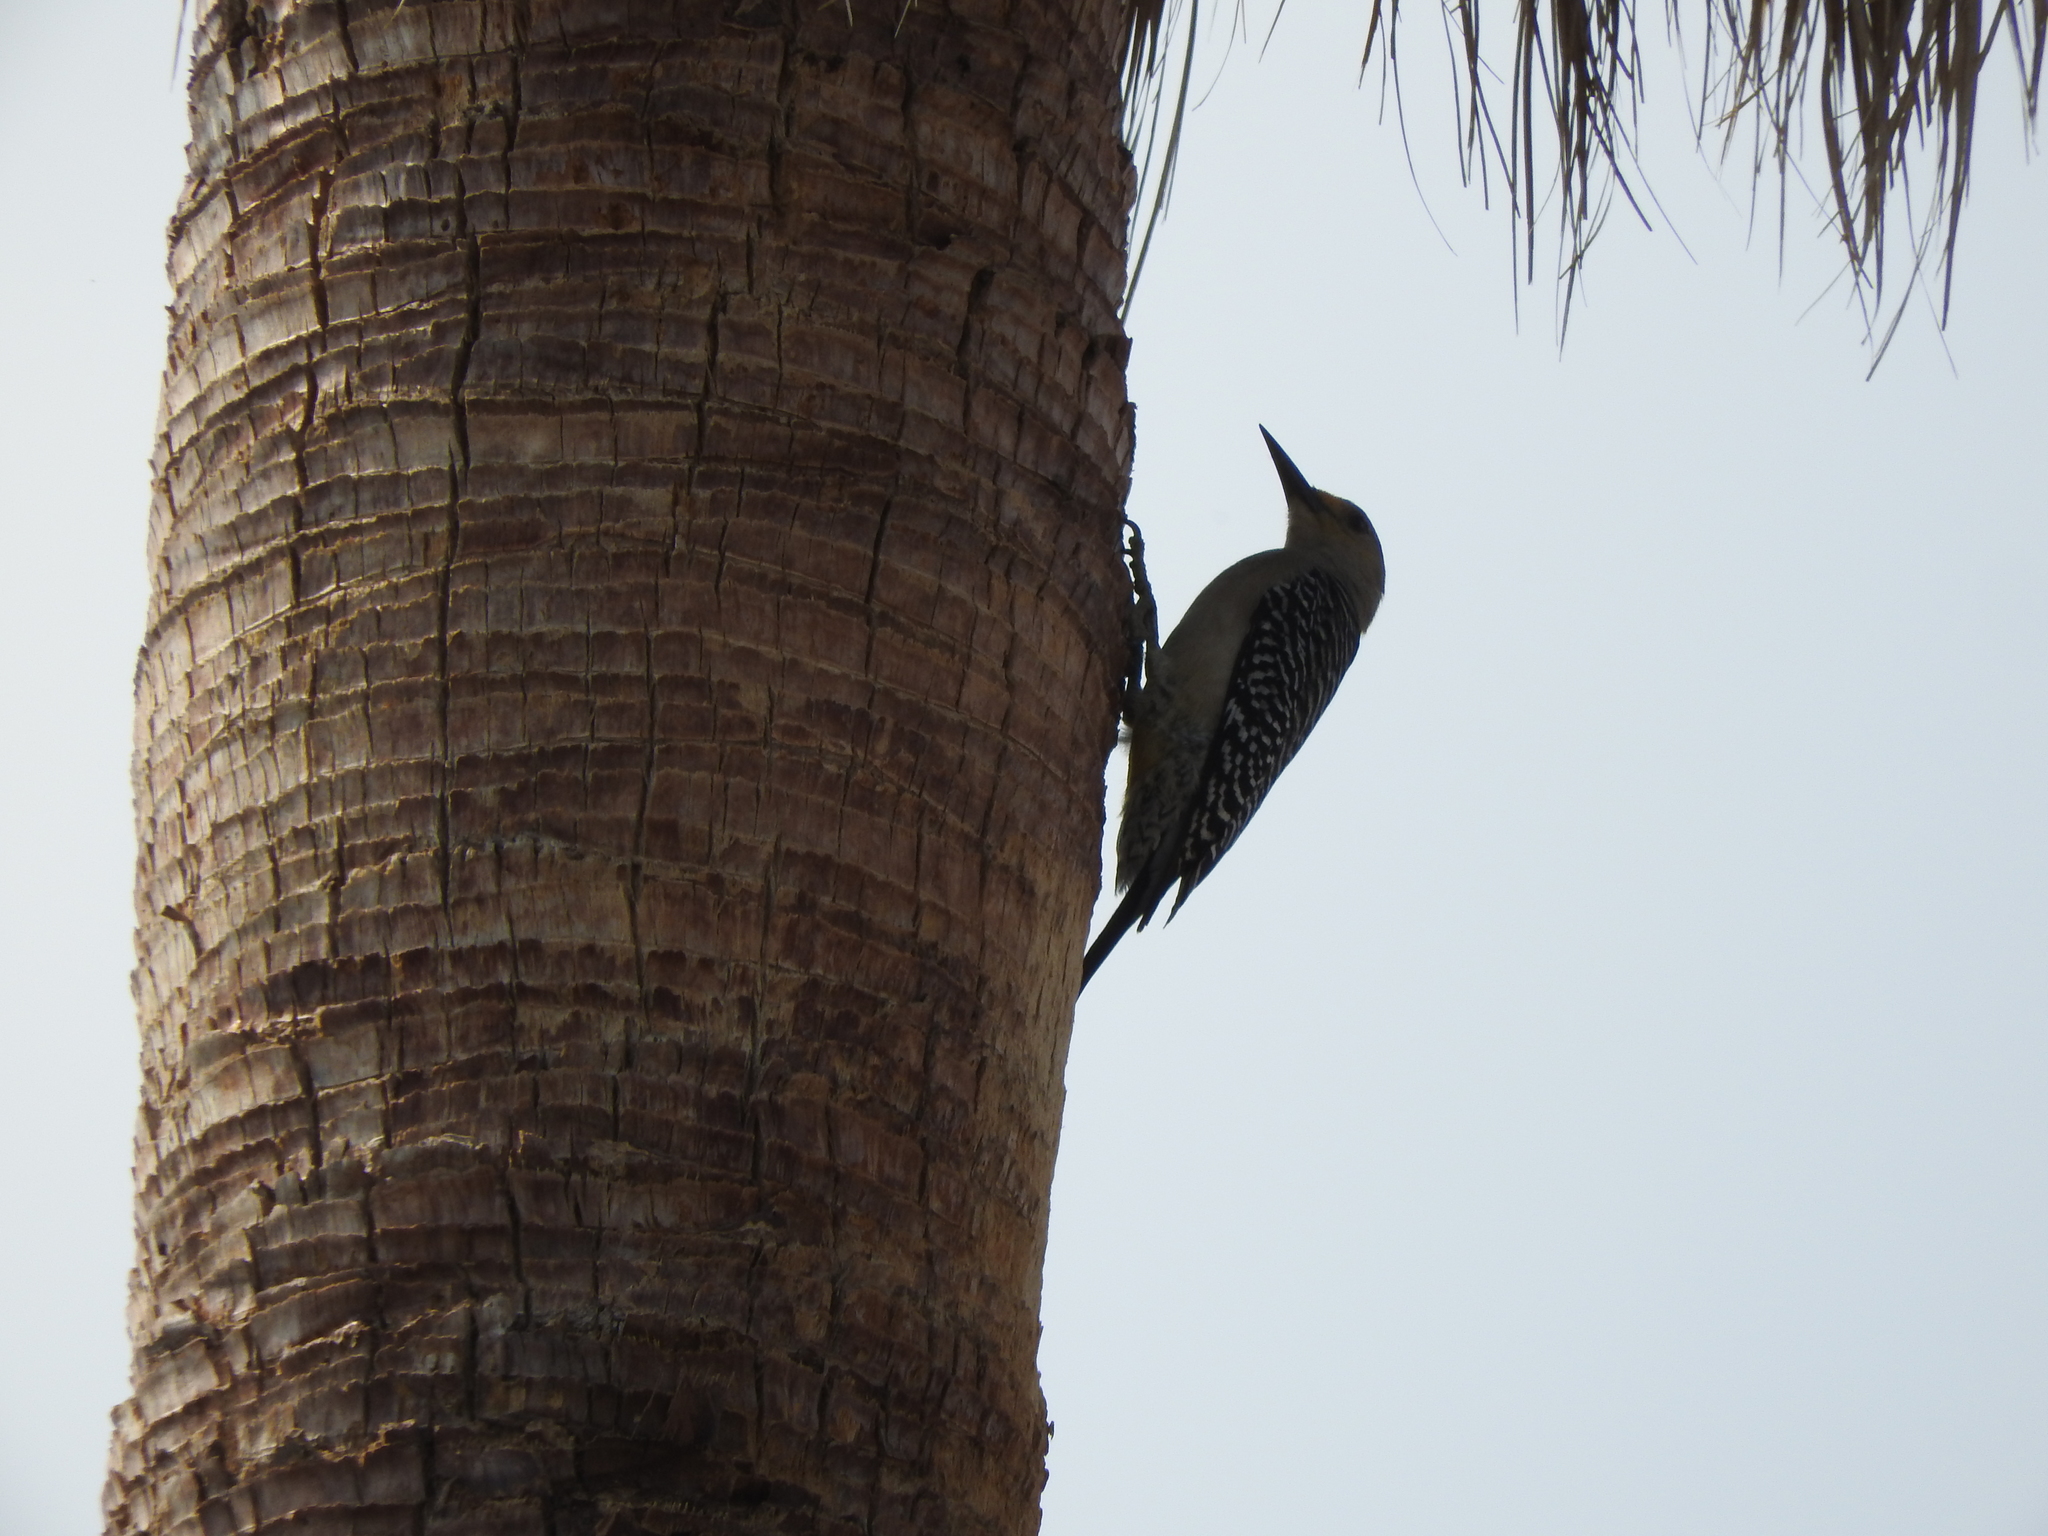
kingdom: Animalia
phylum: Chordata
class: Aves
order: Piciformes
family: Picidae
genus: Melanerpes
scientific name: Melanerpes aurifrons
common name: Golden-fronted woodpecker
